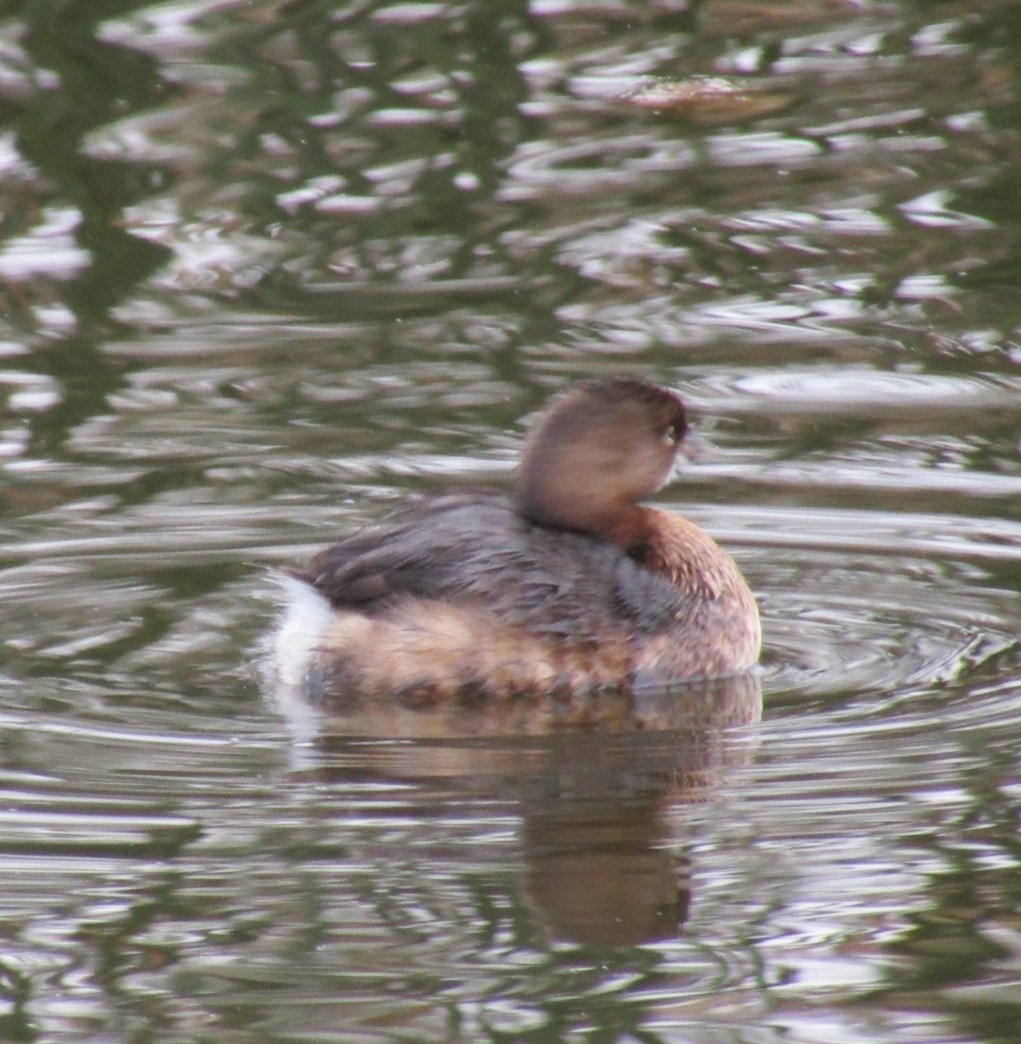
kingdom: Animalia
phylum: Chordata
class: Aves
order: Podicipediformes
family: Podicipedidae
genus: Podilymbus
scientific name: Podilymbus podiceps
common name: Pied-billed grebe
